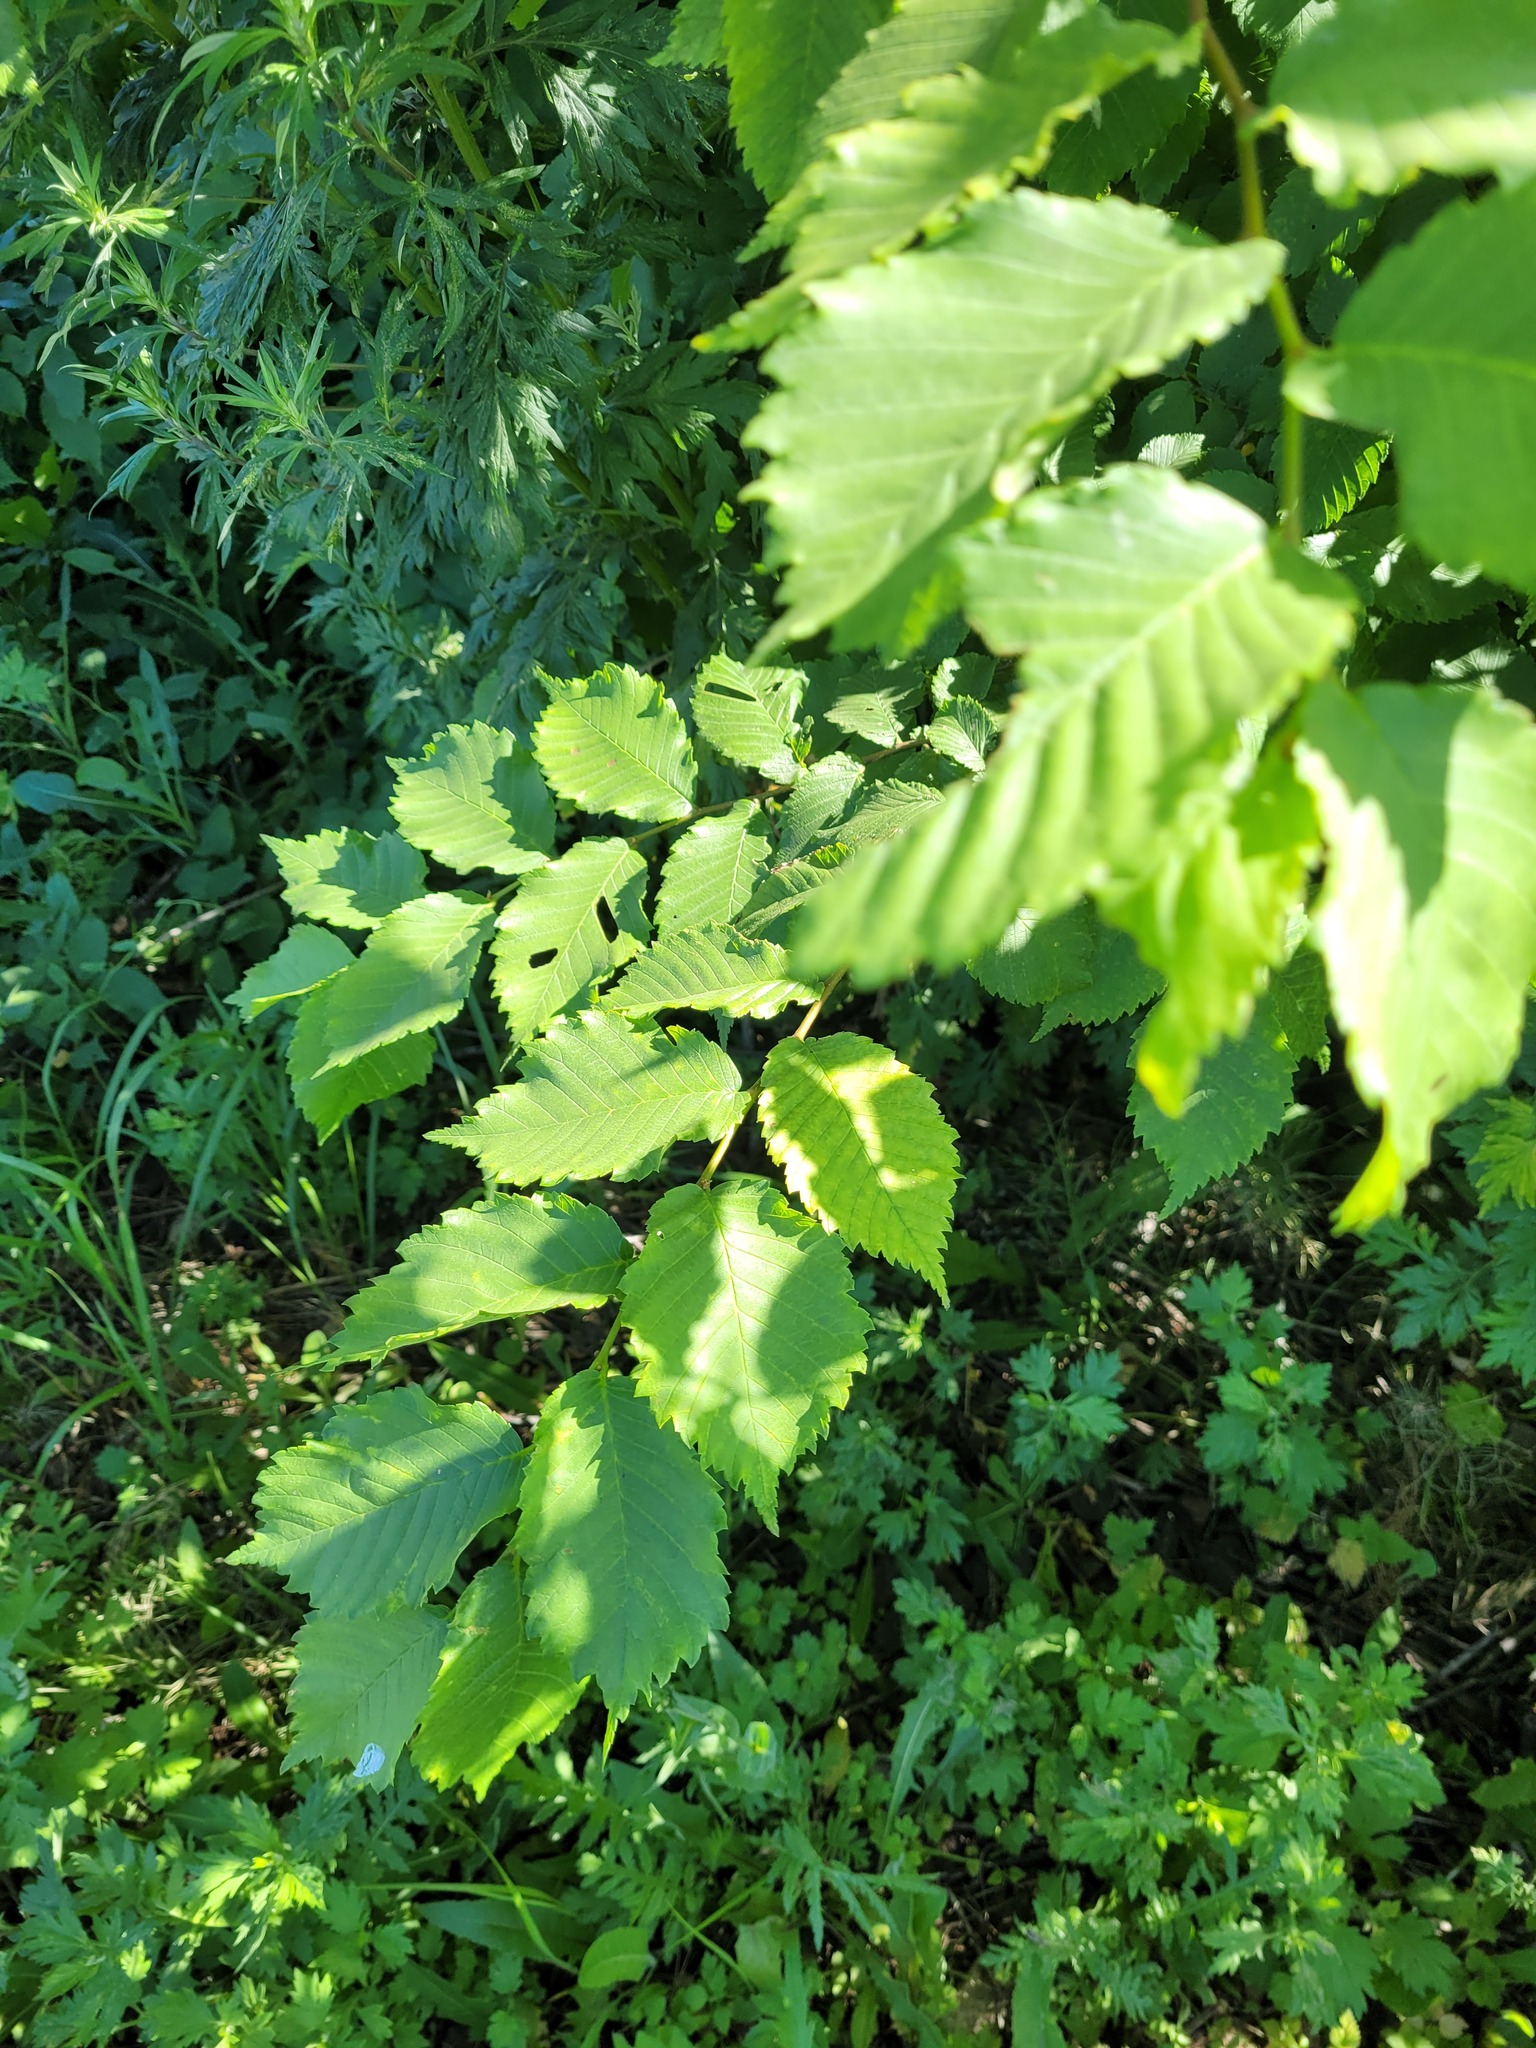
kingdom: Plantae
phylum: Tracheophyta
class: Magnoliopsida
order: Rosales
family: Ulmaceae
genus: Ulmus
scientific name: Ulmus laevis
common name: European white-elm
